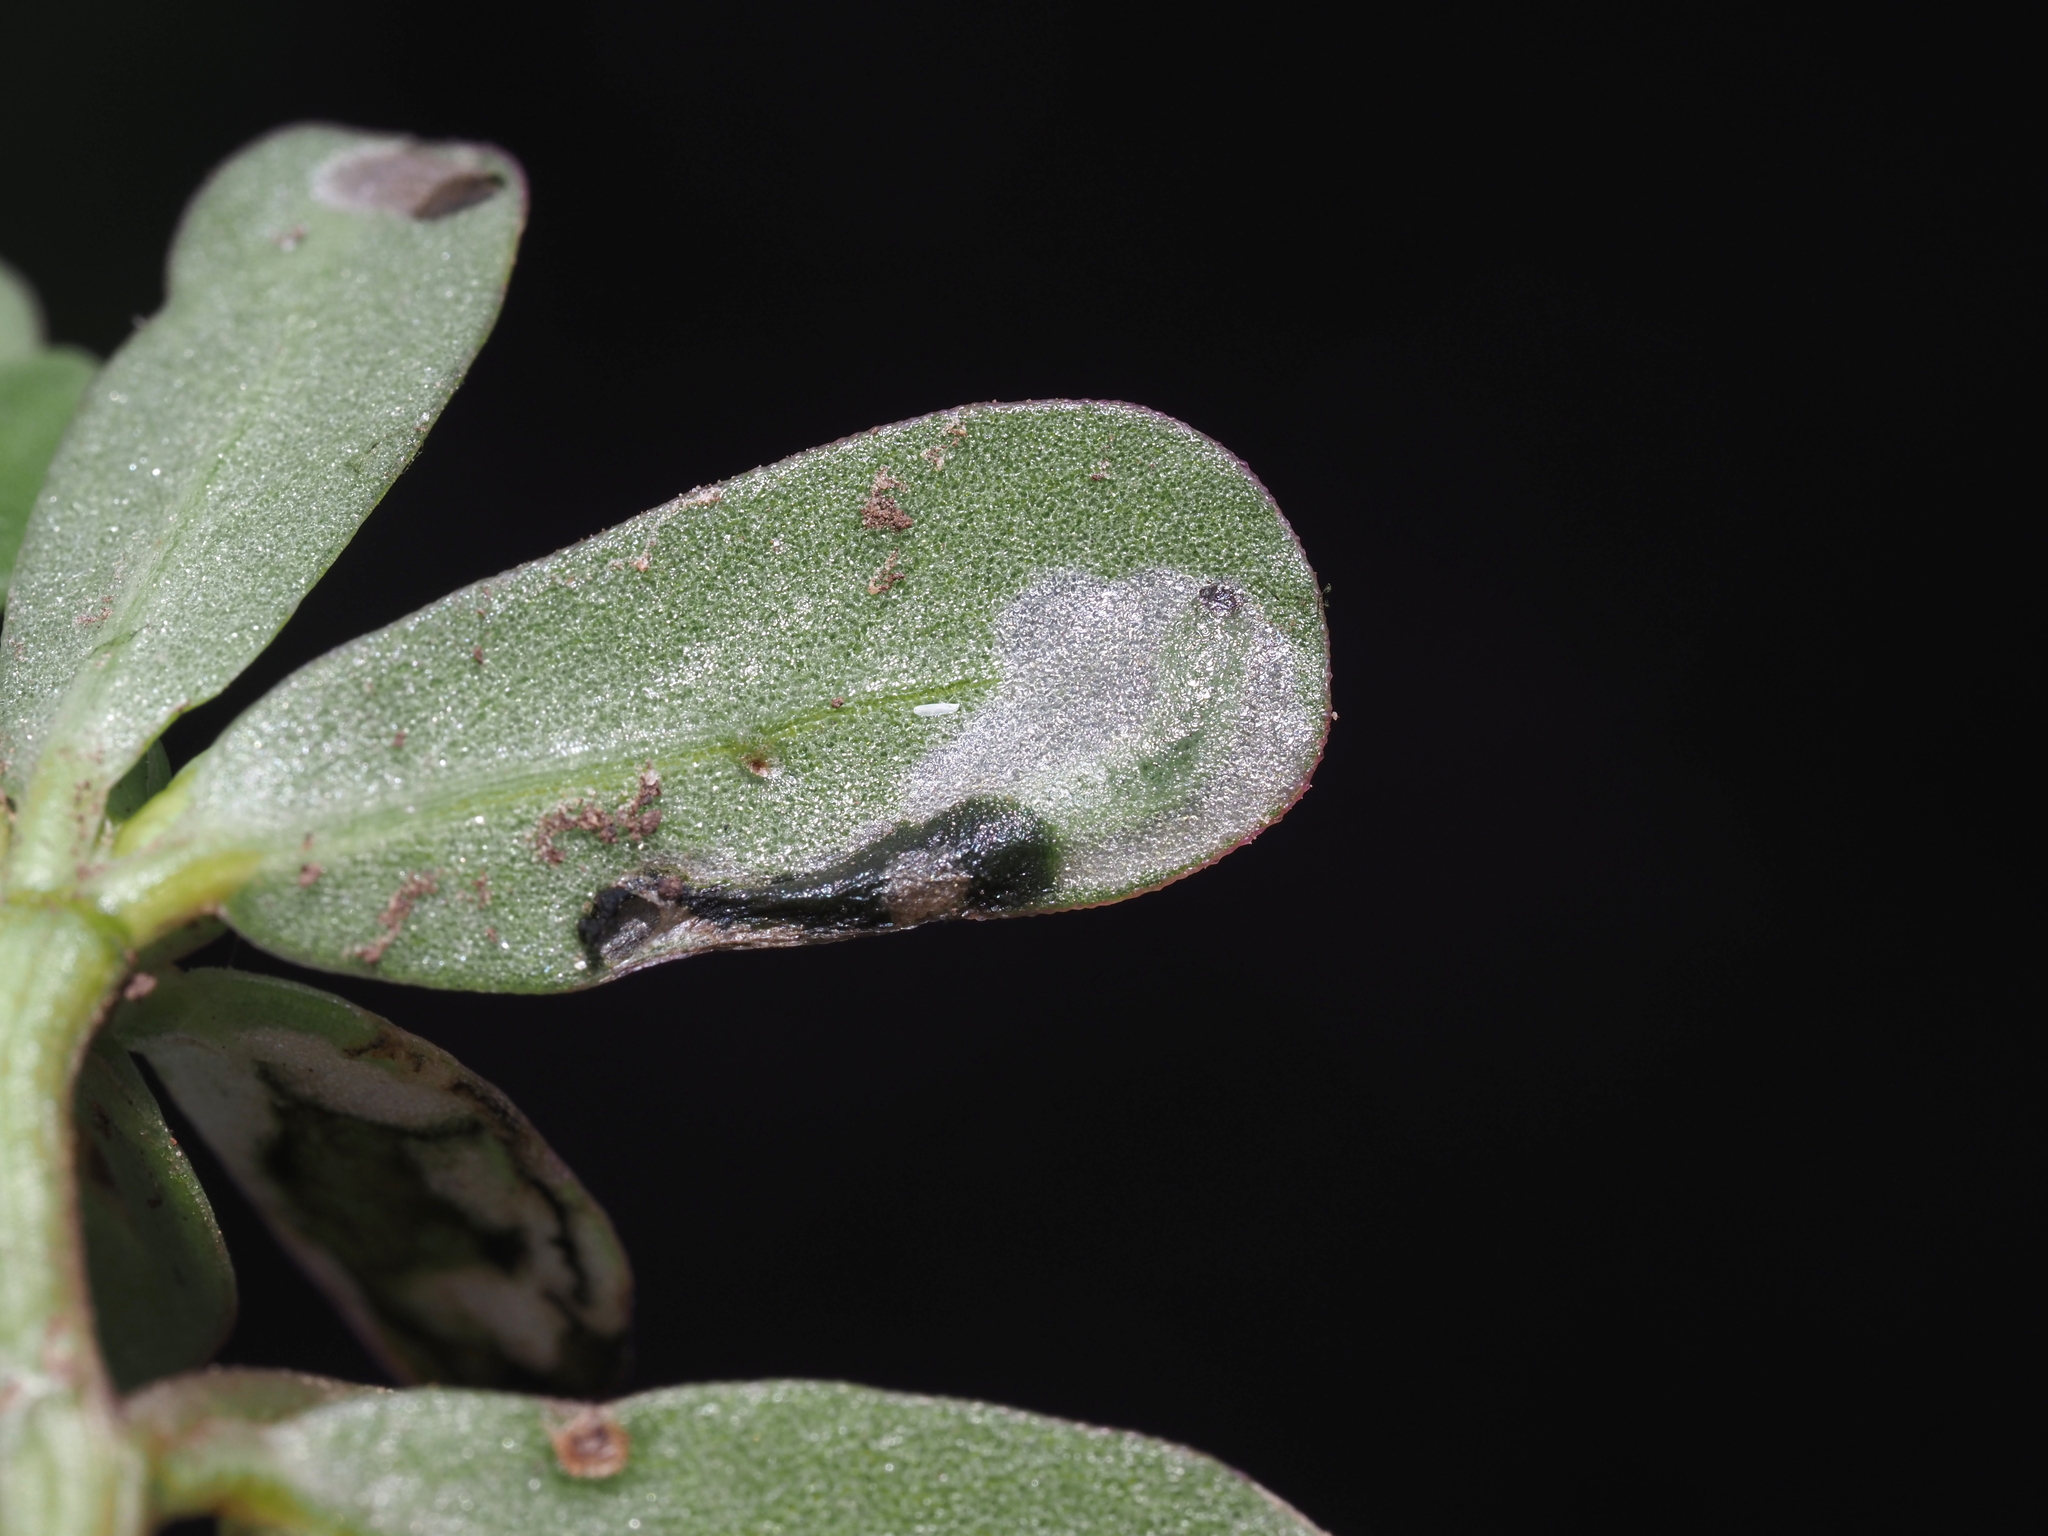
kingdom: Animalia
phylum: Arthropoda
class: Insecta
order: Hymenoptera
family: Argidae
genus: Schizocerella
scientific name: Schizocerella pilicornis
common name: Purslane sawfly
